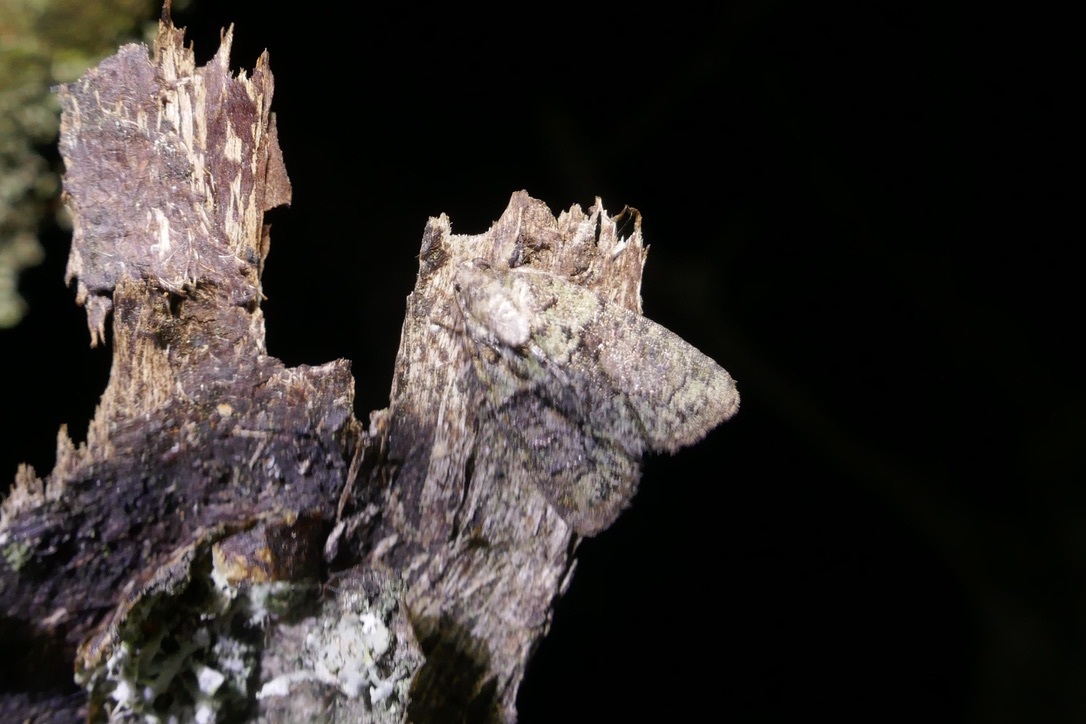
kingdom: Animalia
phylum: Arthropoda
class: Insecta
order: Lepidoptera
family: Noctuidae
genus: Cryphia
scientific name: Cryphia algae
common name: Tree-lichen beauty
